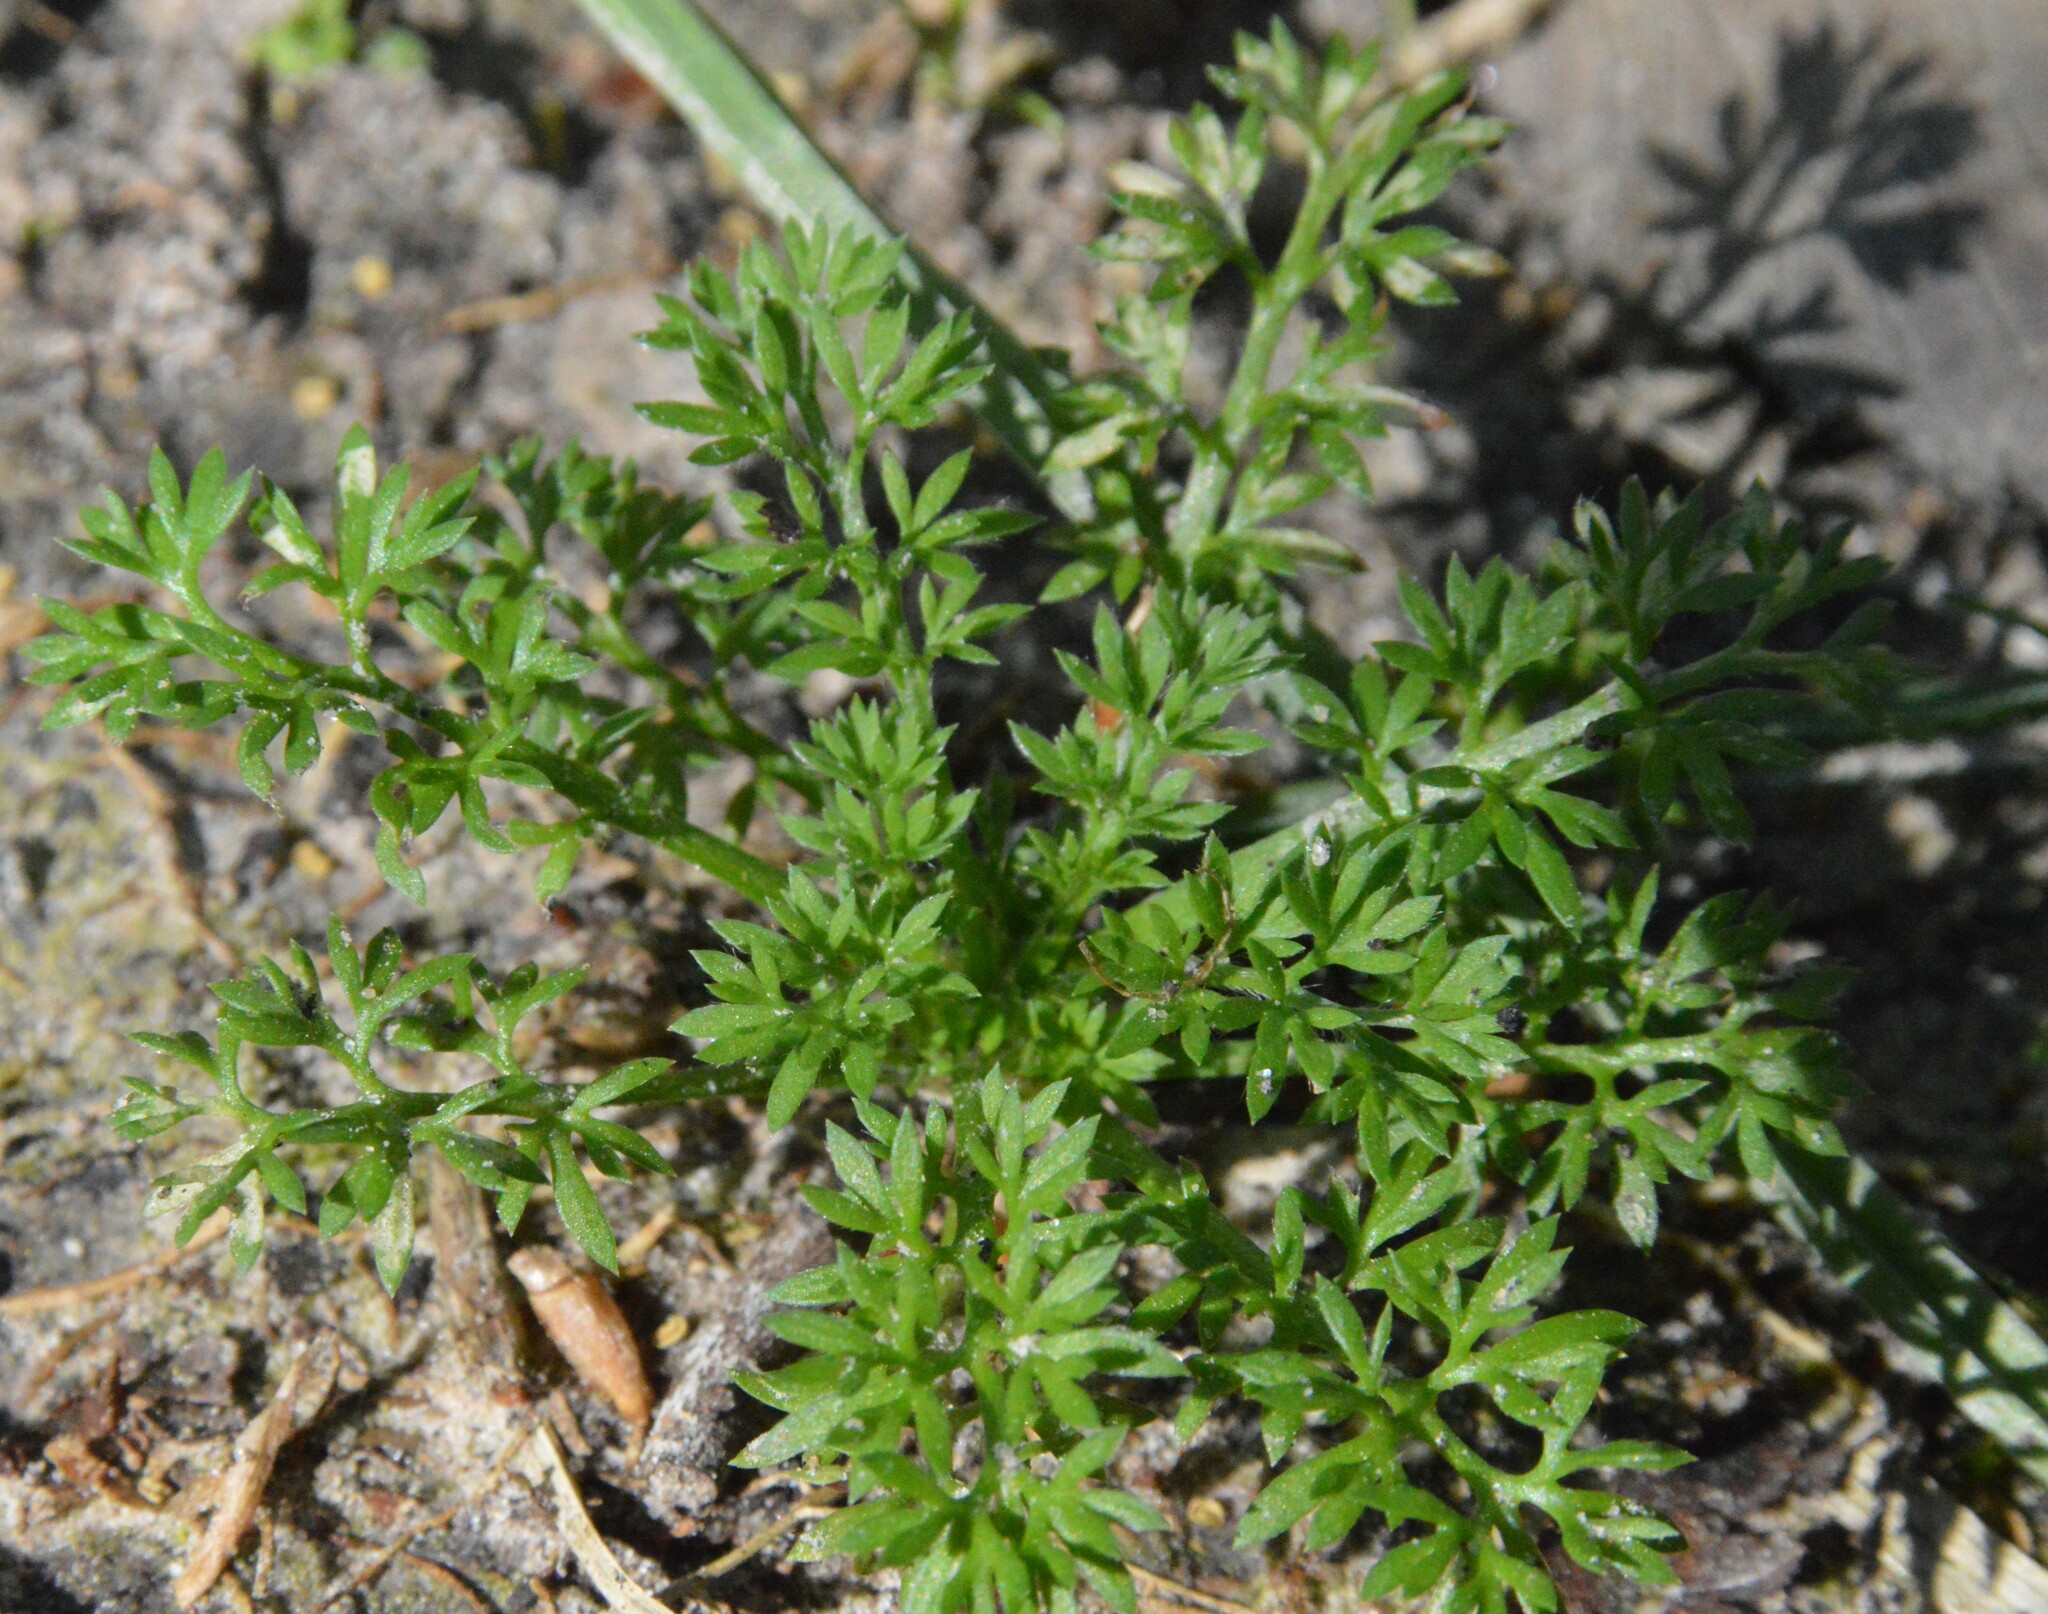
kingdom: Plantae
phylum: Tracheophyta
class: Magnoliopsida
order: Asterales
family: Asteraceae
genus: Soliva
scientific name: Soliva sessilis
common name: Field burrweed
